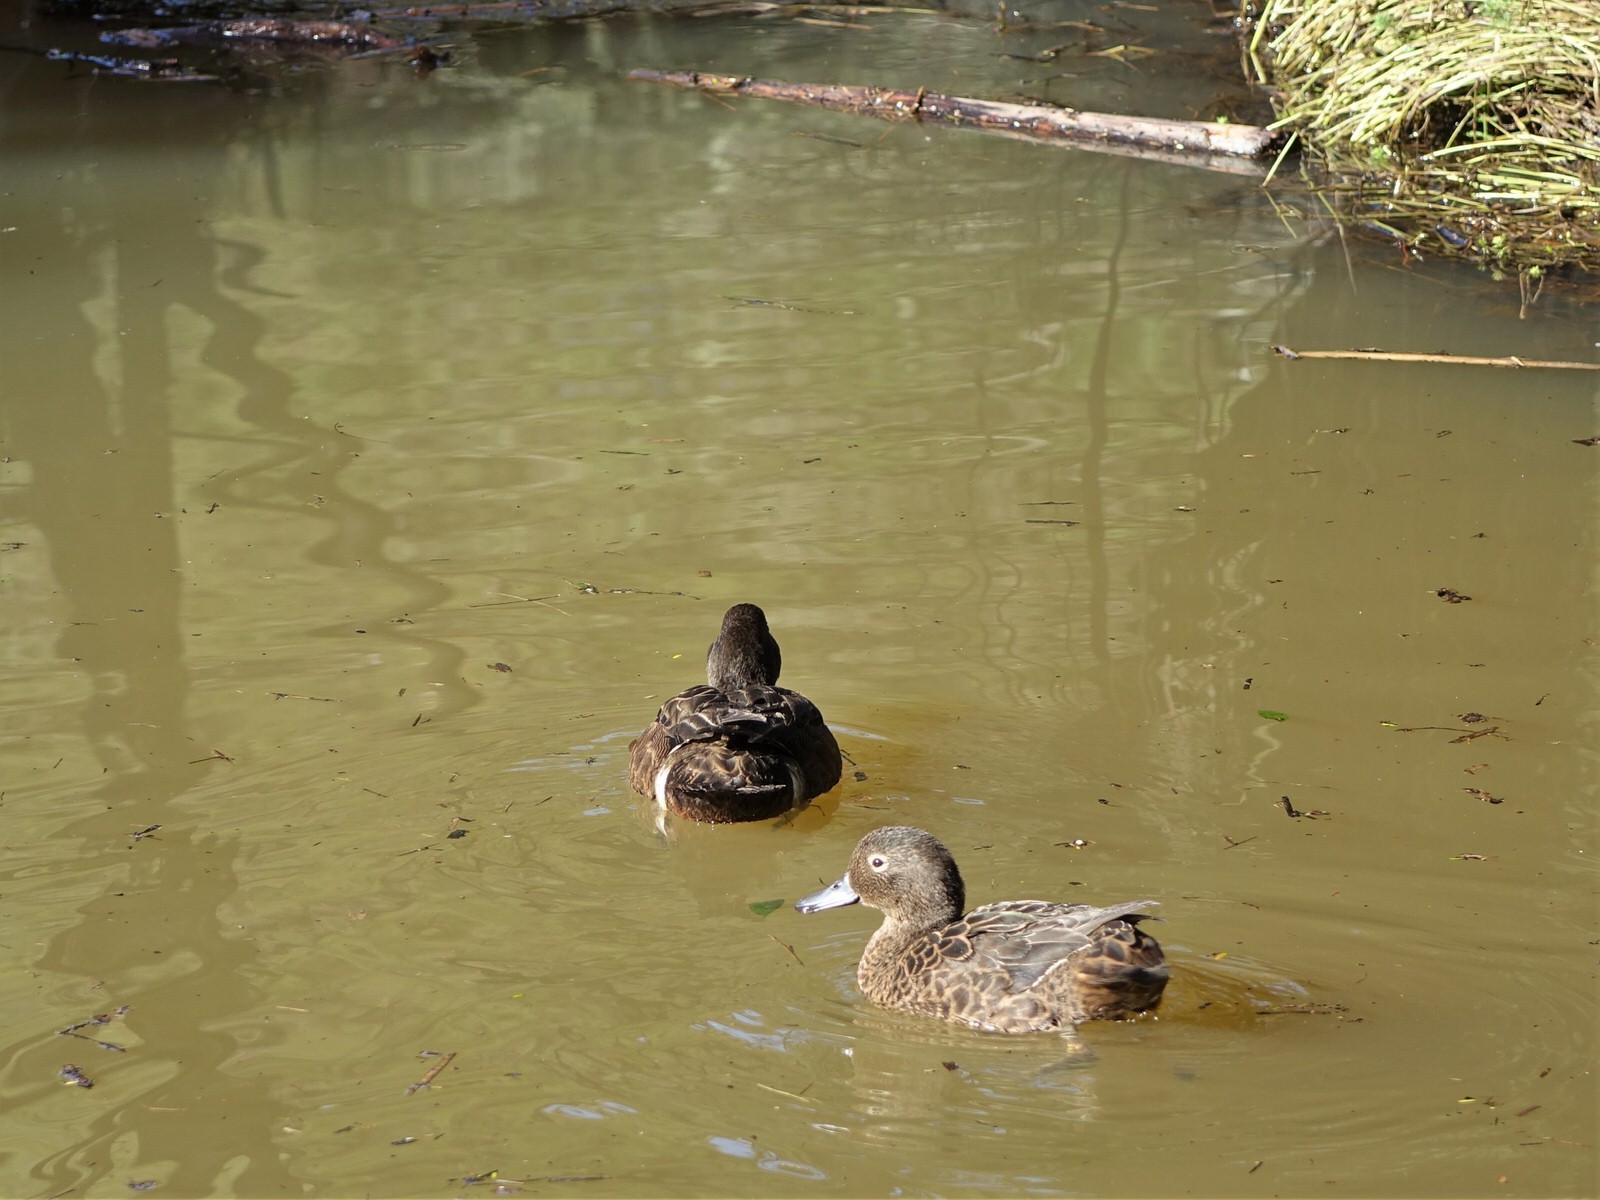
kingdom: Animalia
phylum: Chordata
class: Aves
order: Anseriformes
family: Anatidae
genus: Anas
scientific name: Anas chlorotis
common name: Brown teal
